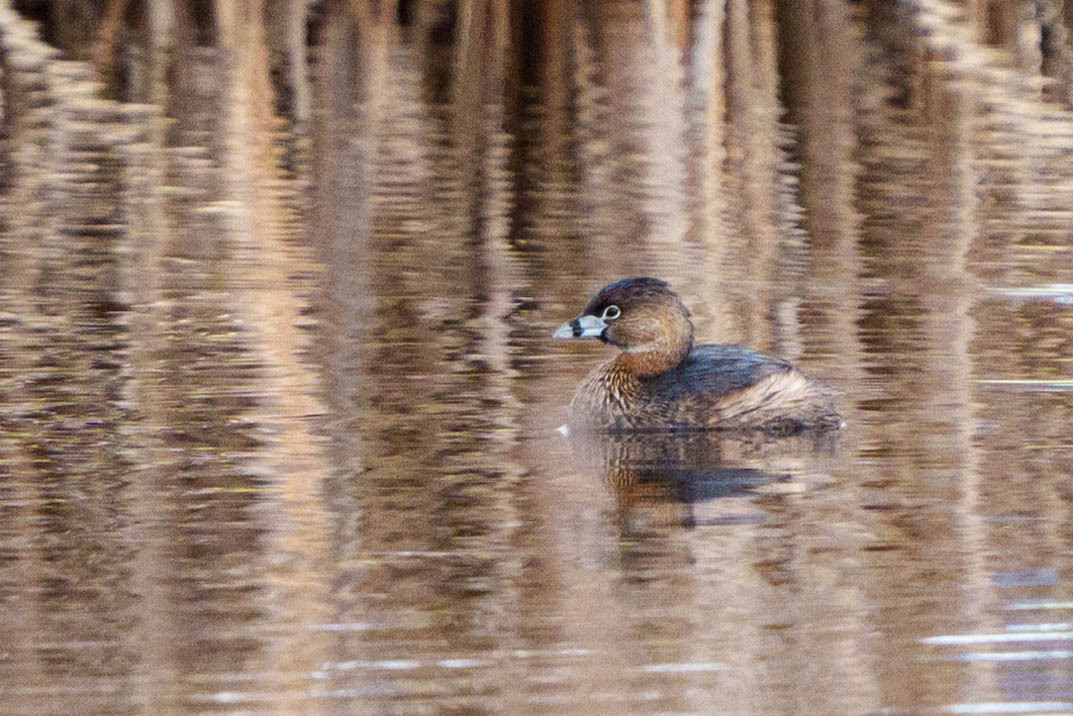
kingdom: Animalia
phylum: Chordata
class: Aves
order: Podicipediformes
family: Podicipedidae
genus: Podilymbus
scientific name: Podilymbus podiceps
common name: Pied-billed grebe
